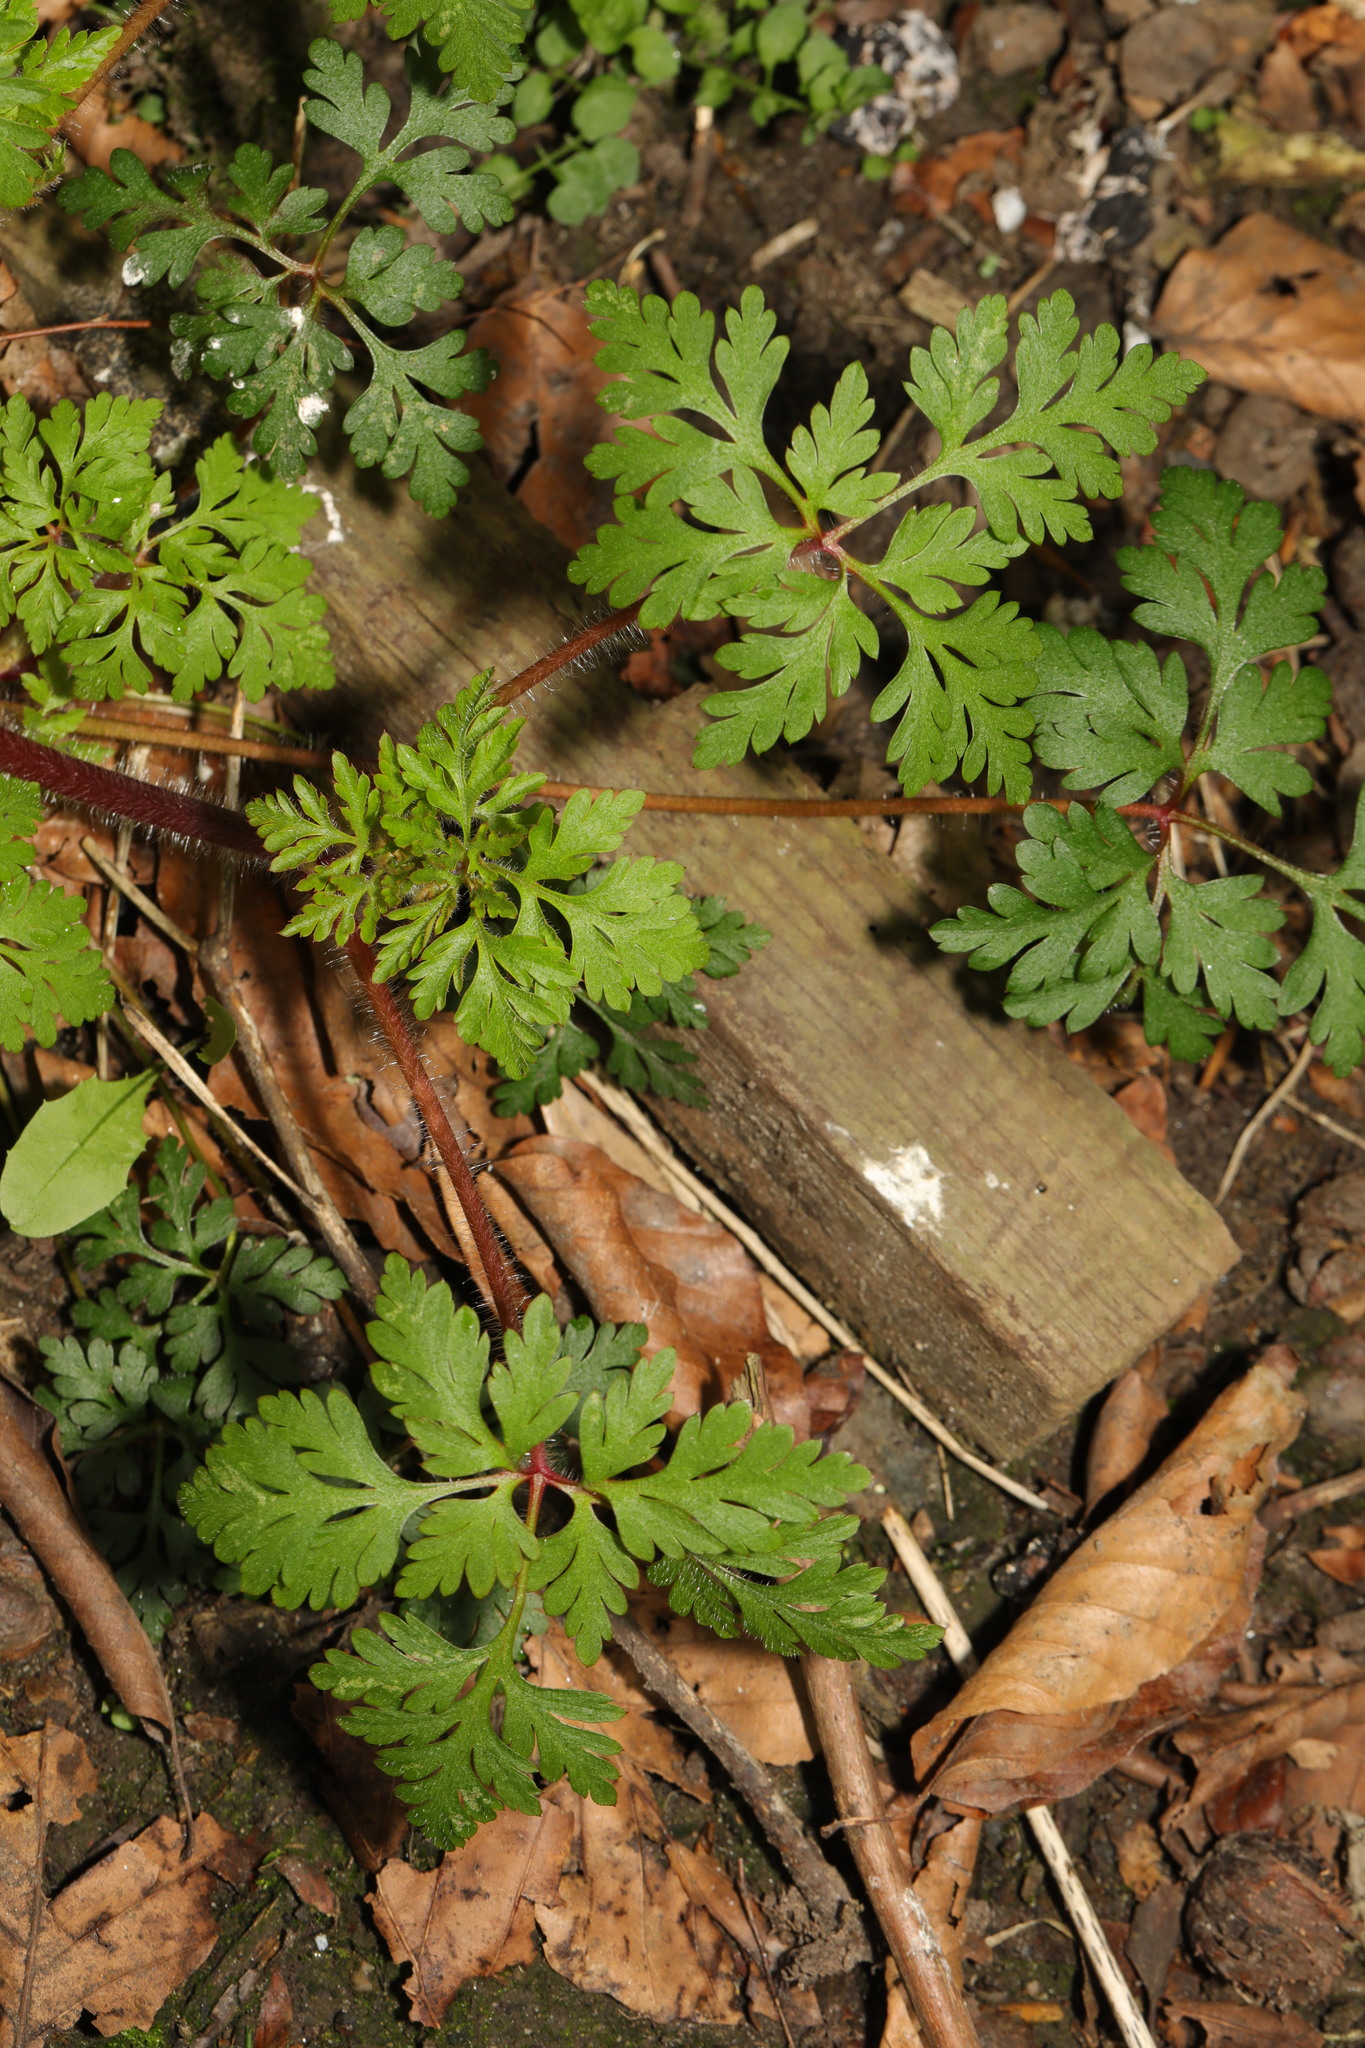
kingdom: Plantae
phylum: Tracheophyta
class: Magnoliopsida
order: Geraniales
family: Geraniaceae
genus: Geranium
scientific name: Geranium robertianum
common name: Herb-robert
